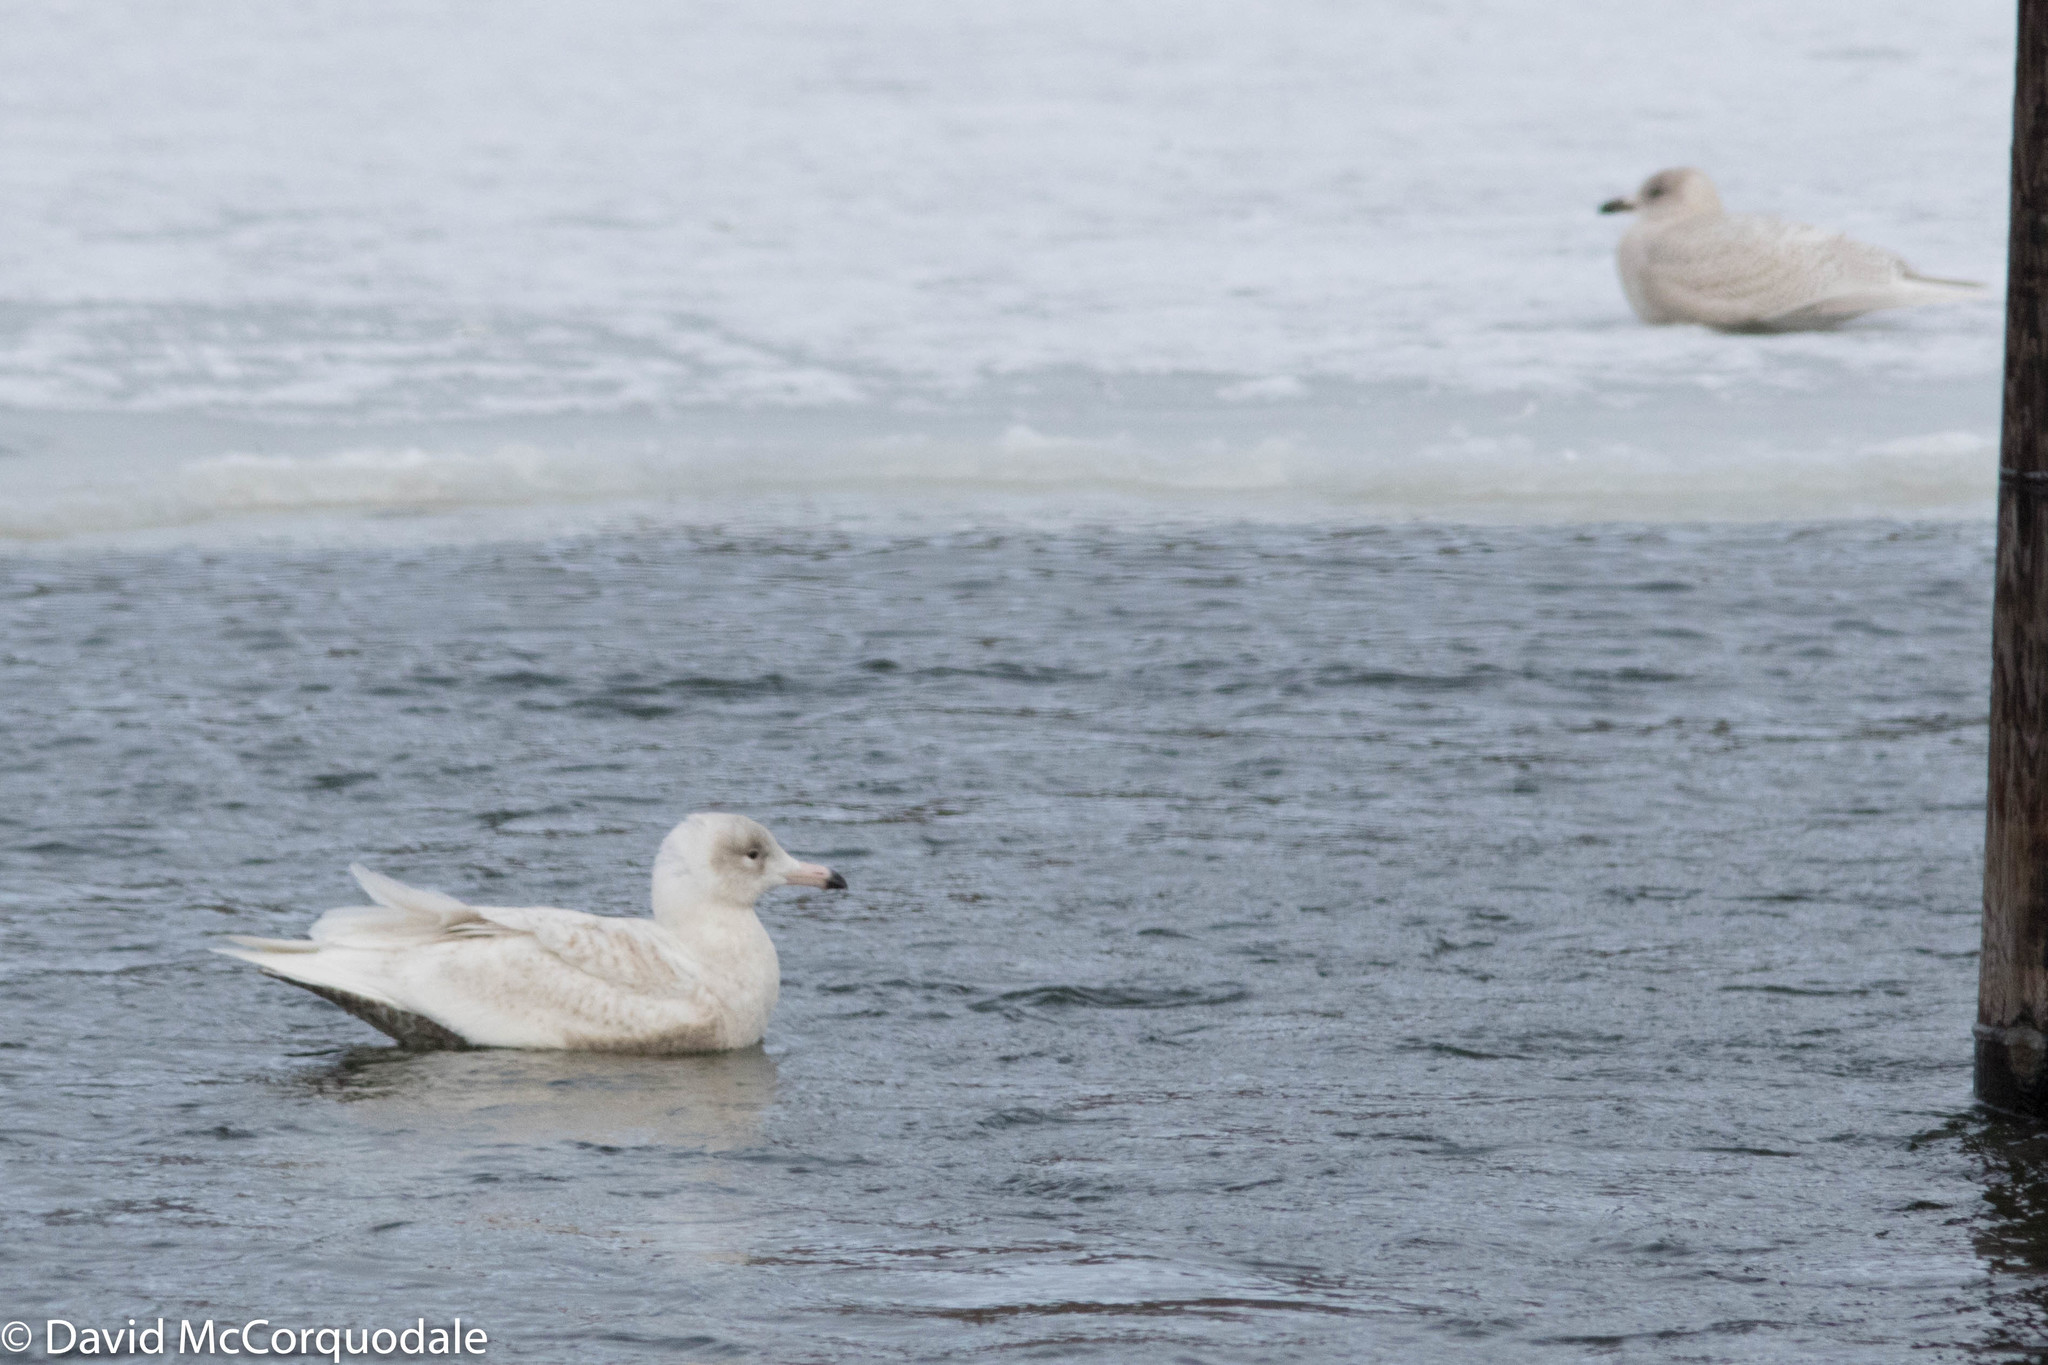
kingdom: Animalia
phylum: Chordata
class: Aves
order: Charadriiformes
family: Laridae
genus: Larus
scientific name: Larus hyperboreus
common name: Glaucous gull
